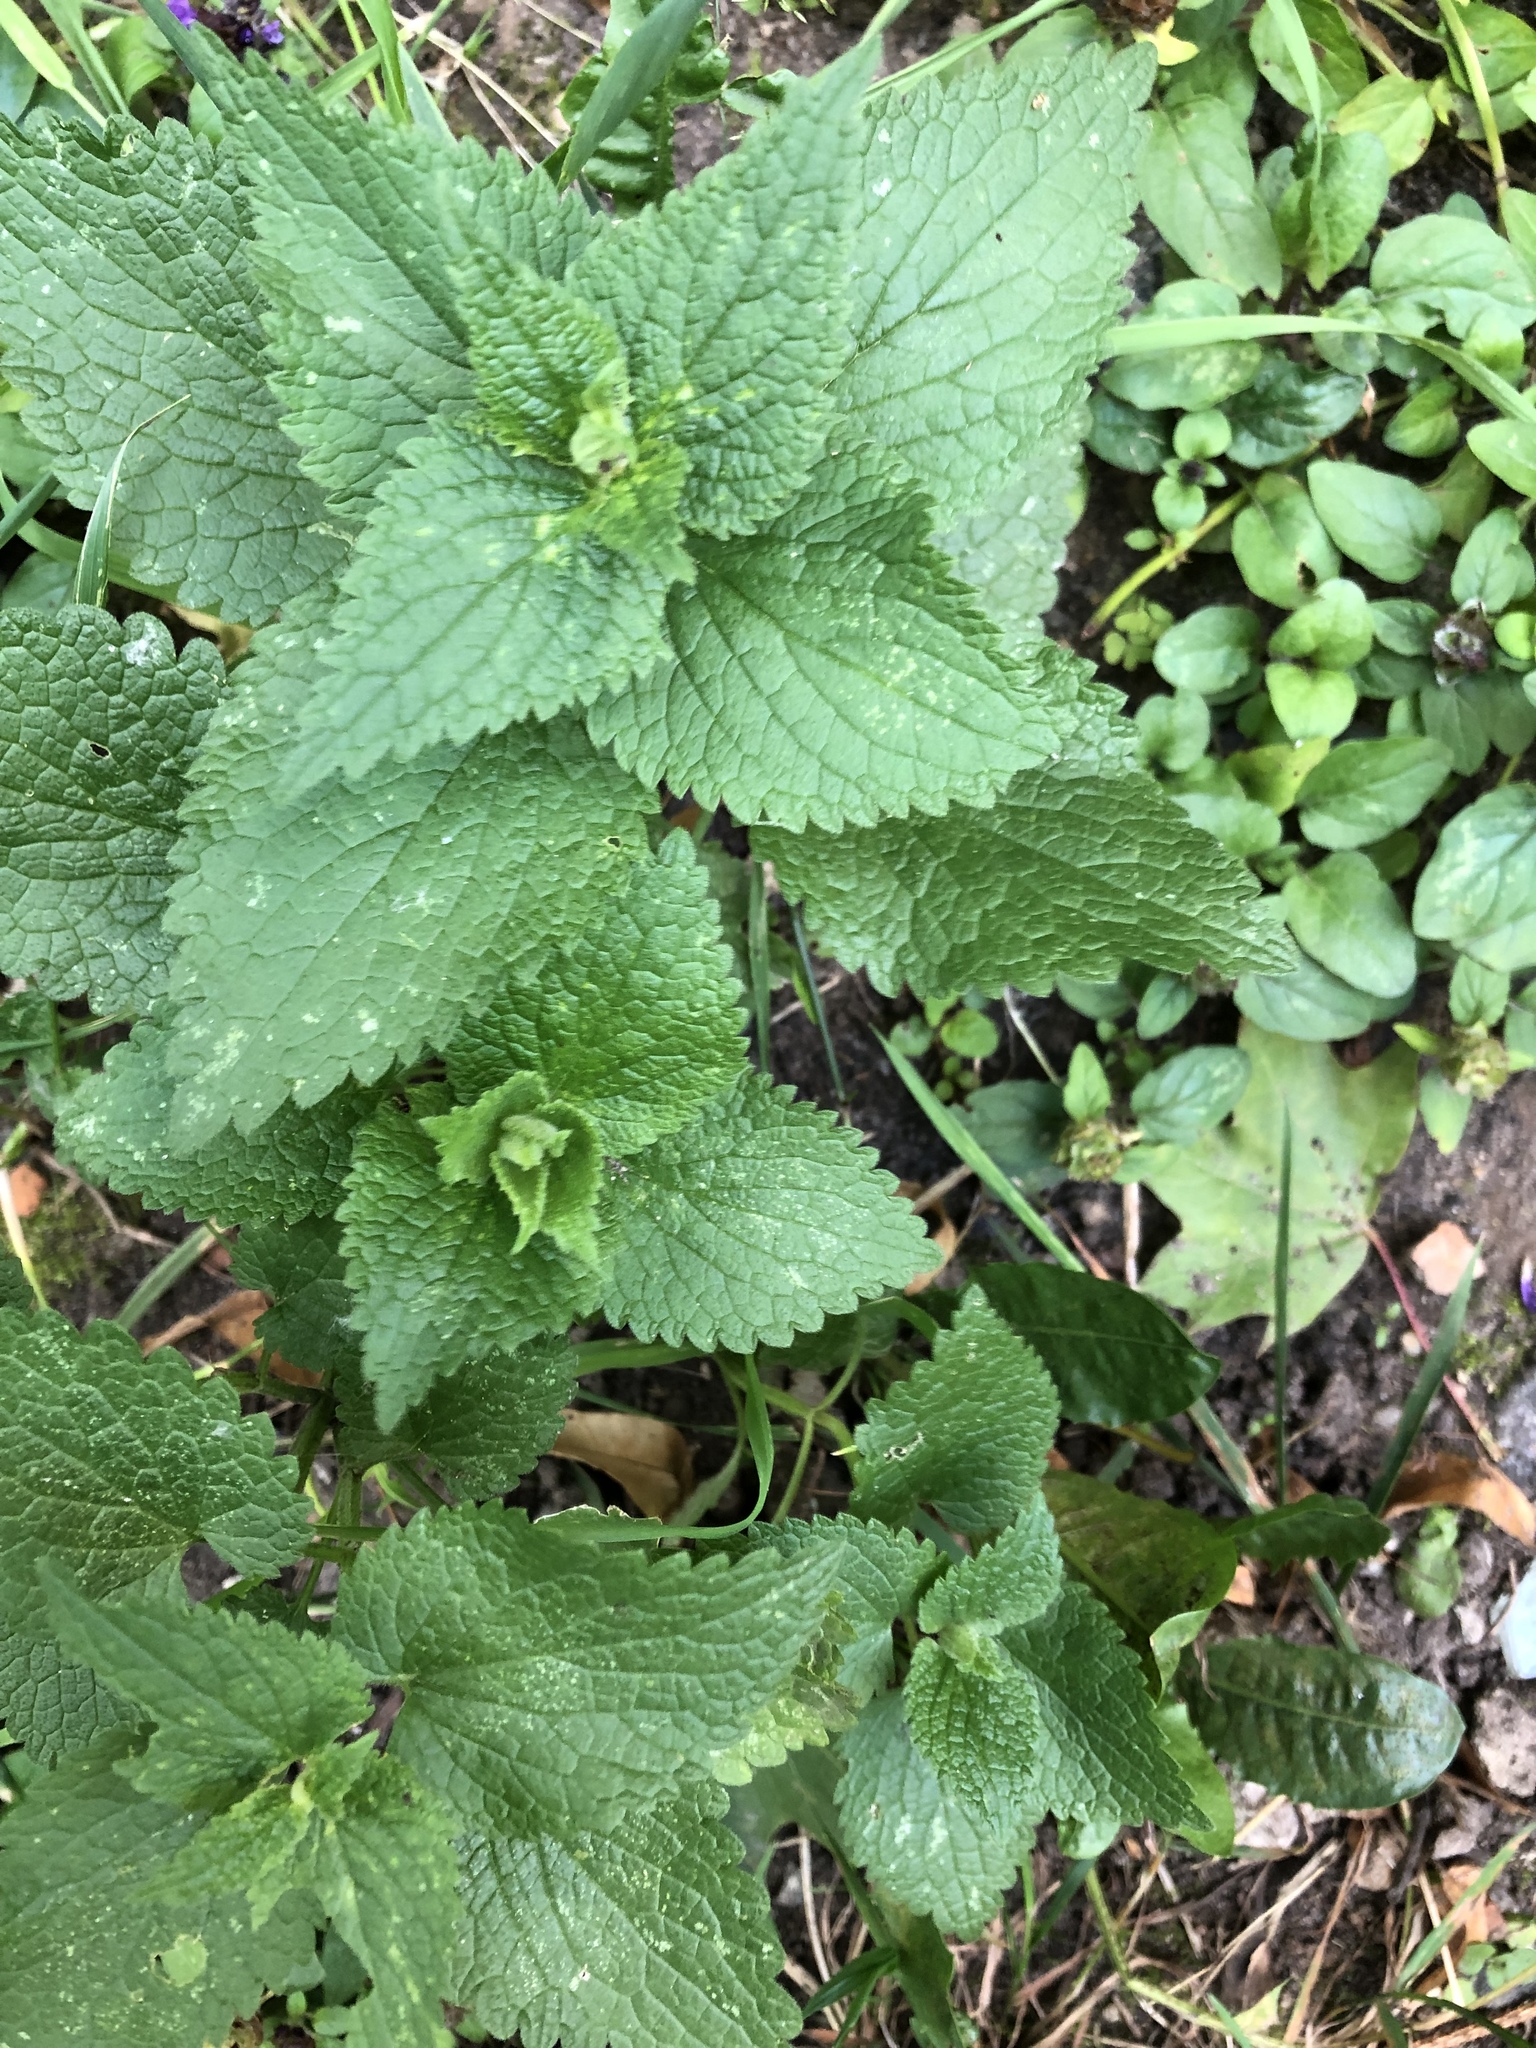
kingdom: Plantae
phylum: Tracheophyta
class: Magnoliopsida
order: Lamiales
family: Lamiaceae
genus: Lamium
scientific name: Lamium album
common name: White dead-nettle
